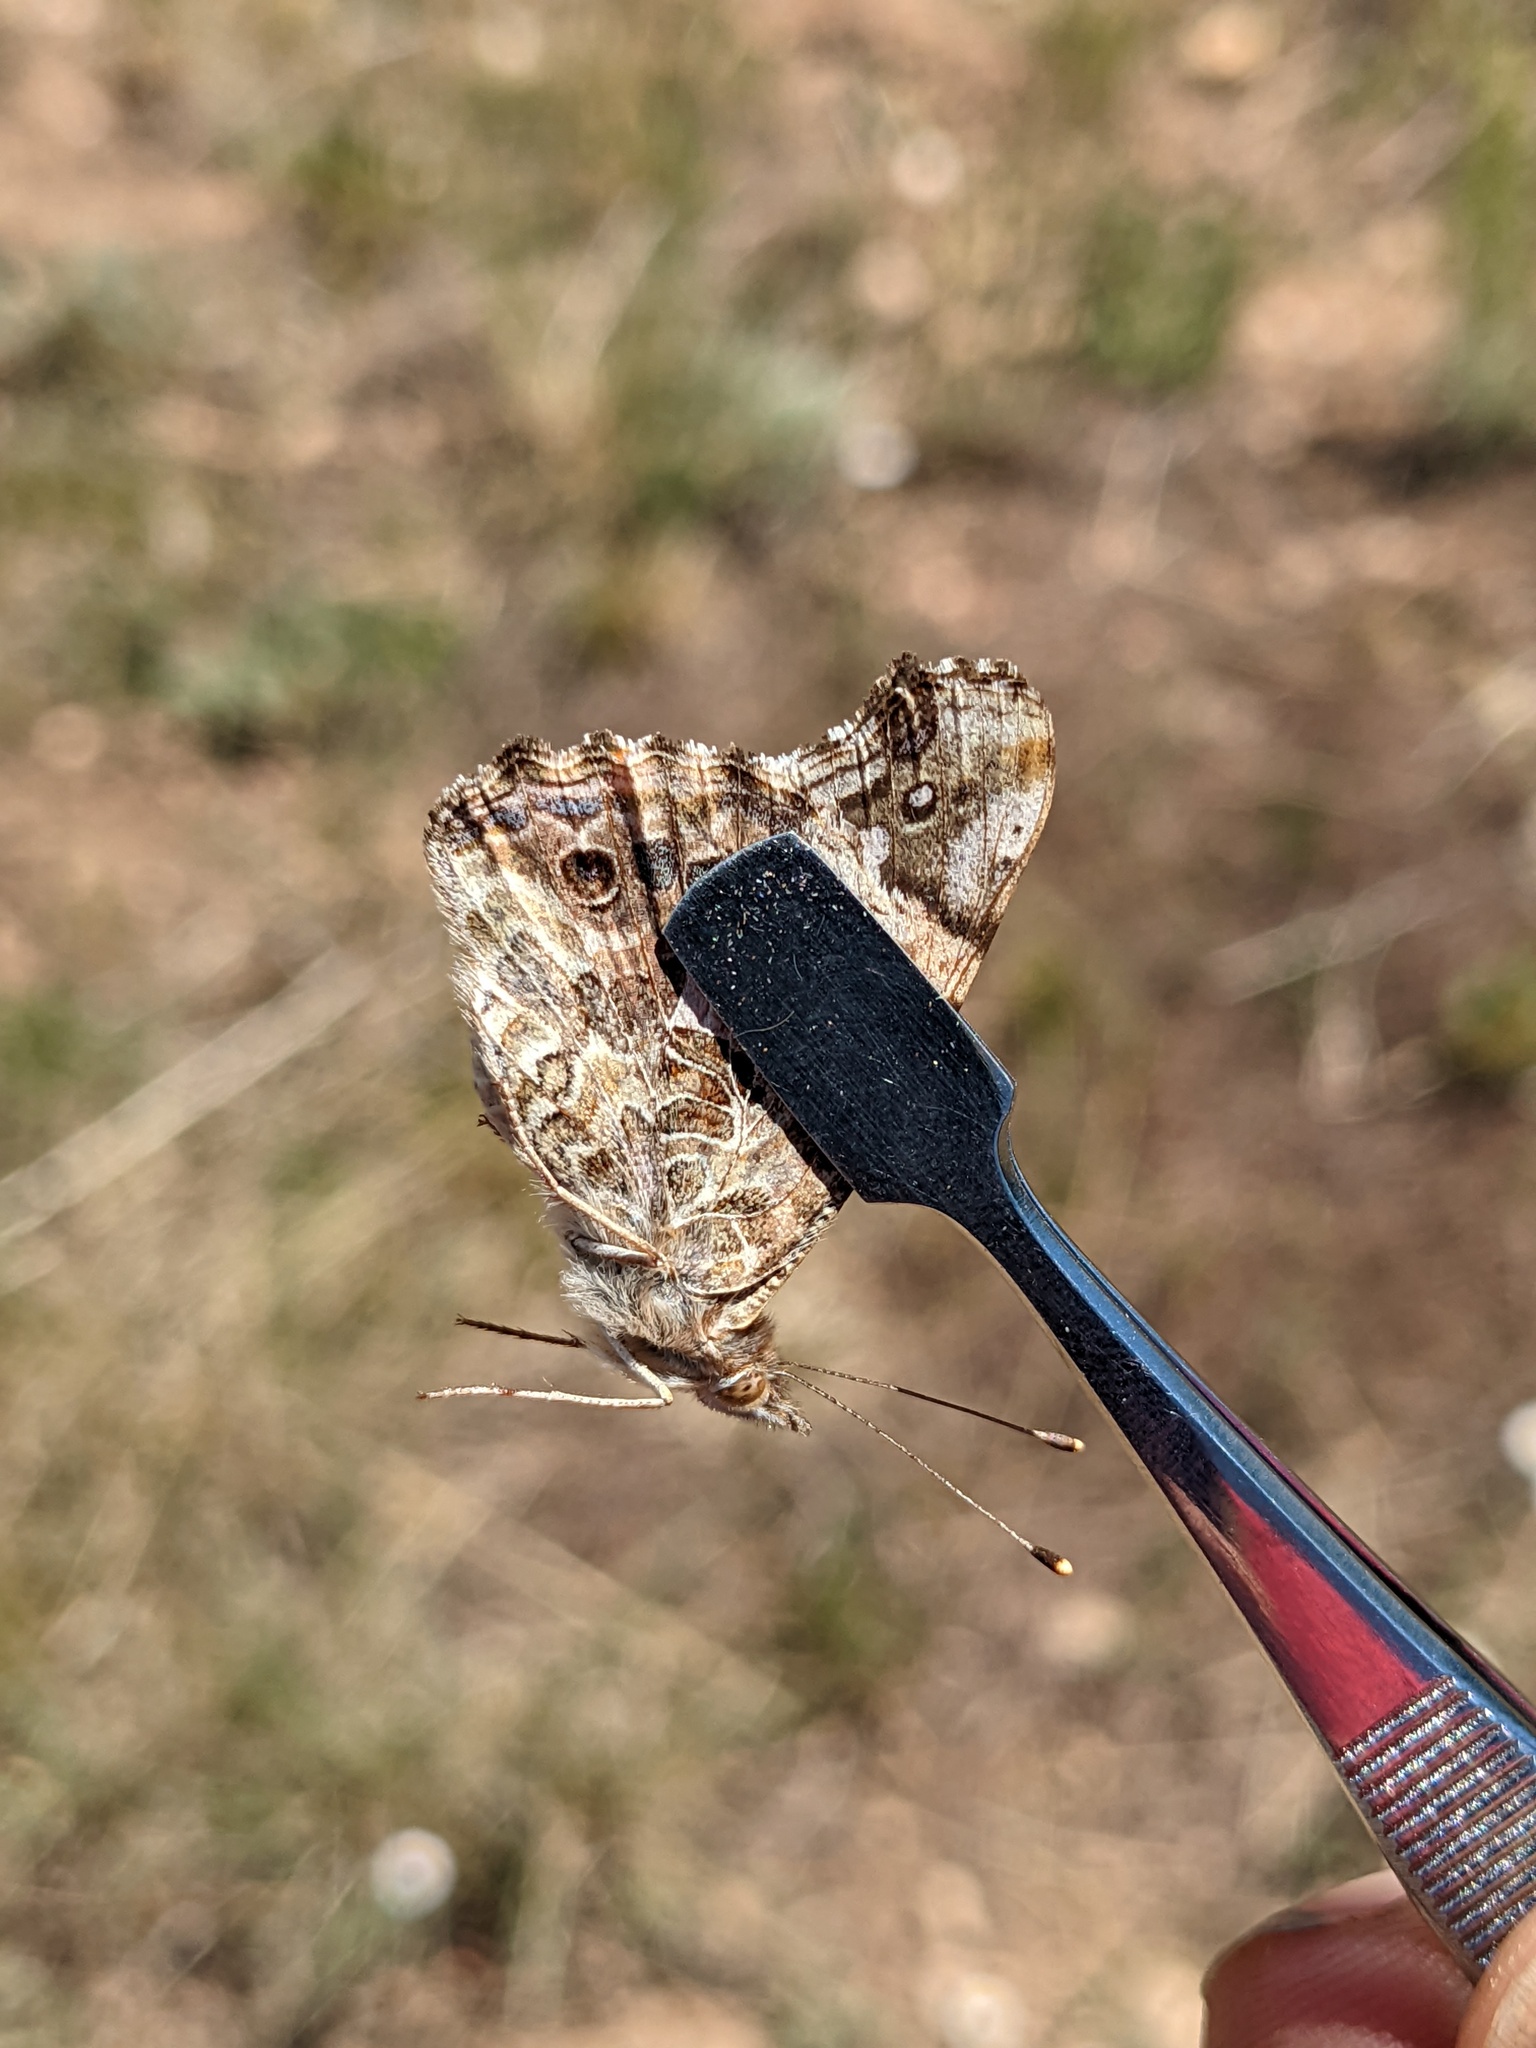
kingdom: Animalia
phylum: Arthropoda
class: Insecta
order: Lepidoptera
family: Nymphalidae
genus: Vanessa
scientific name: Vanessa annabella
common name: West coast lady
